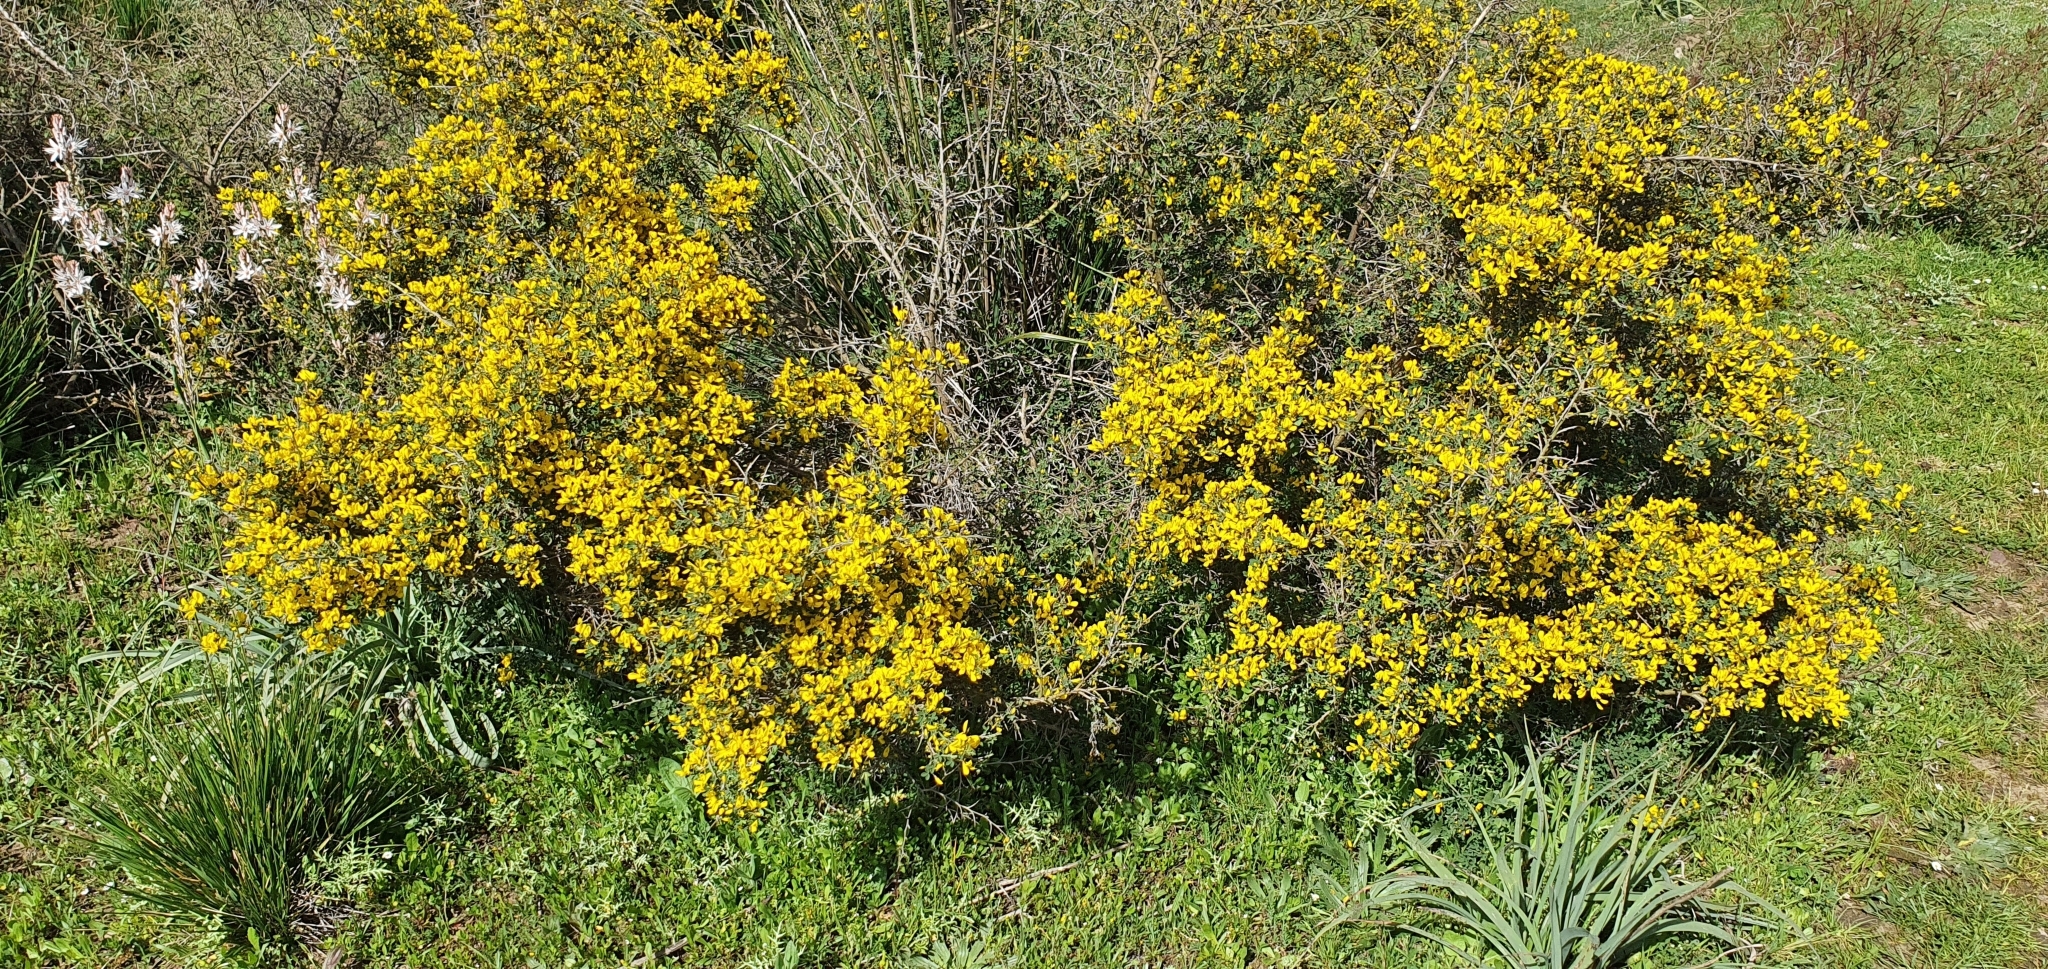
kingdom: Plantae
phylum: Tracheophyta
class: Magnoliopsida
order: Fabales
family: Fabaceae
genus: Calicotome
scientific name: Calicotome spinosa
